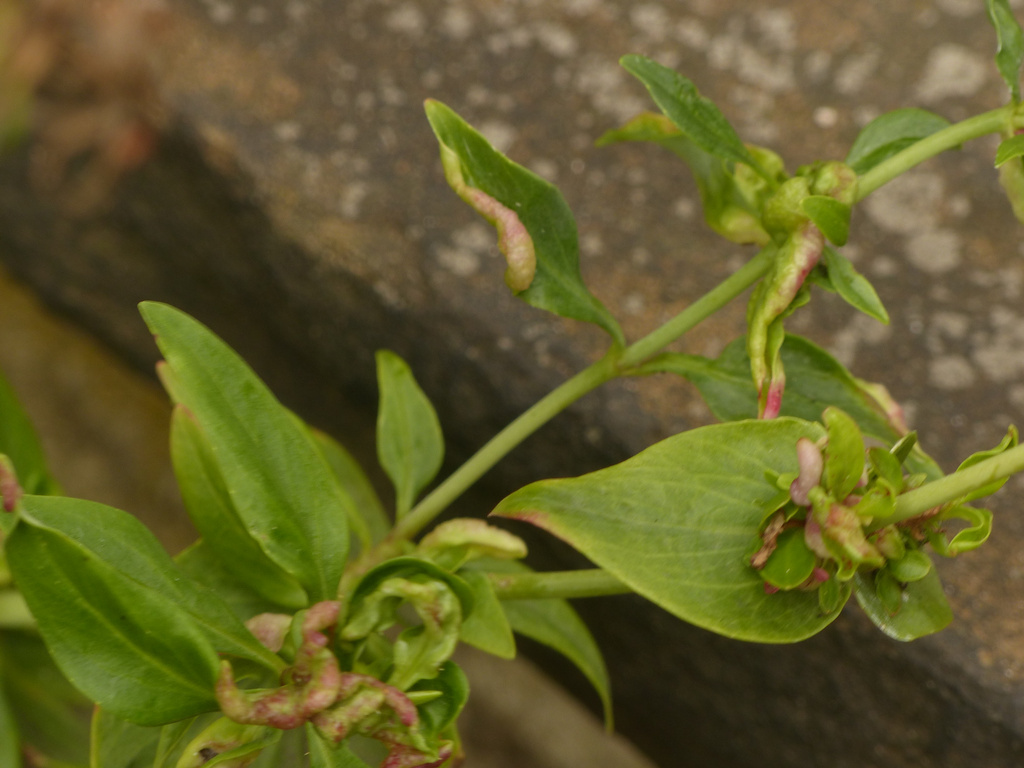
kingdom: Animalia
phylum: Arthropoda
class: Insecta
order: Hemiptera
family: Triozidae
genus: Trioza
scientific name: Trioza centranthi
